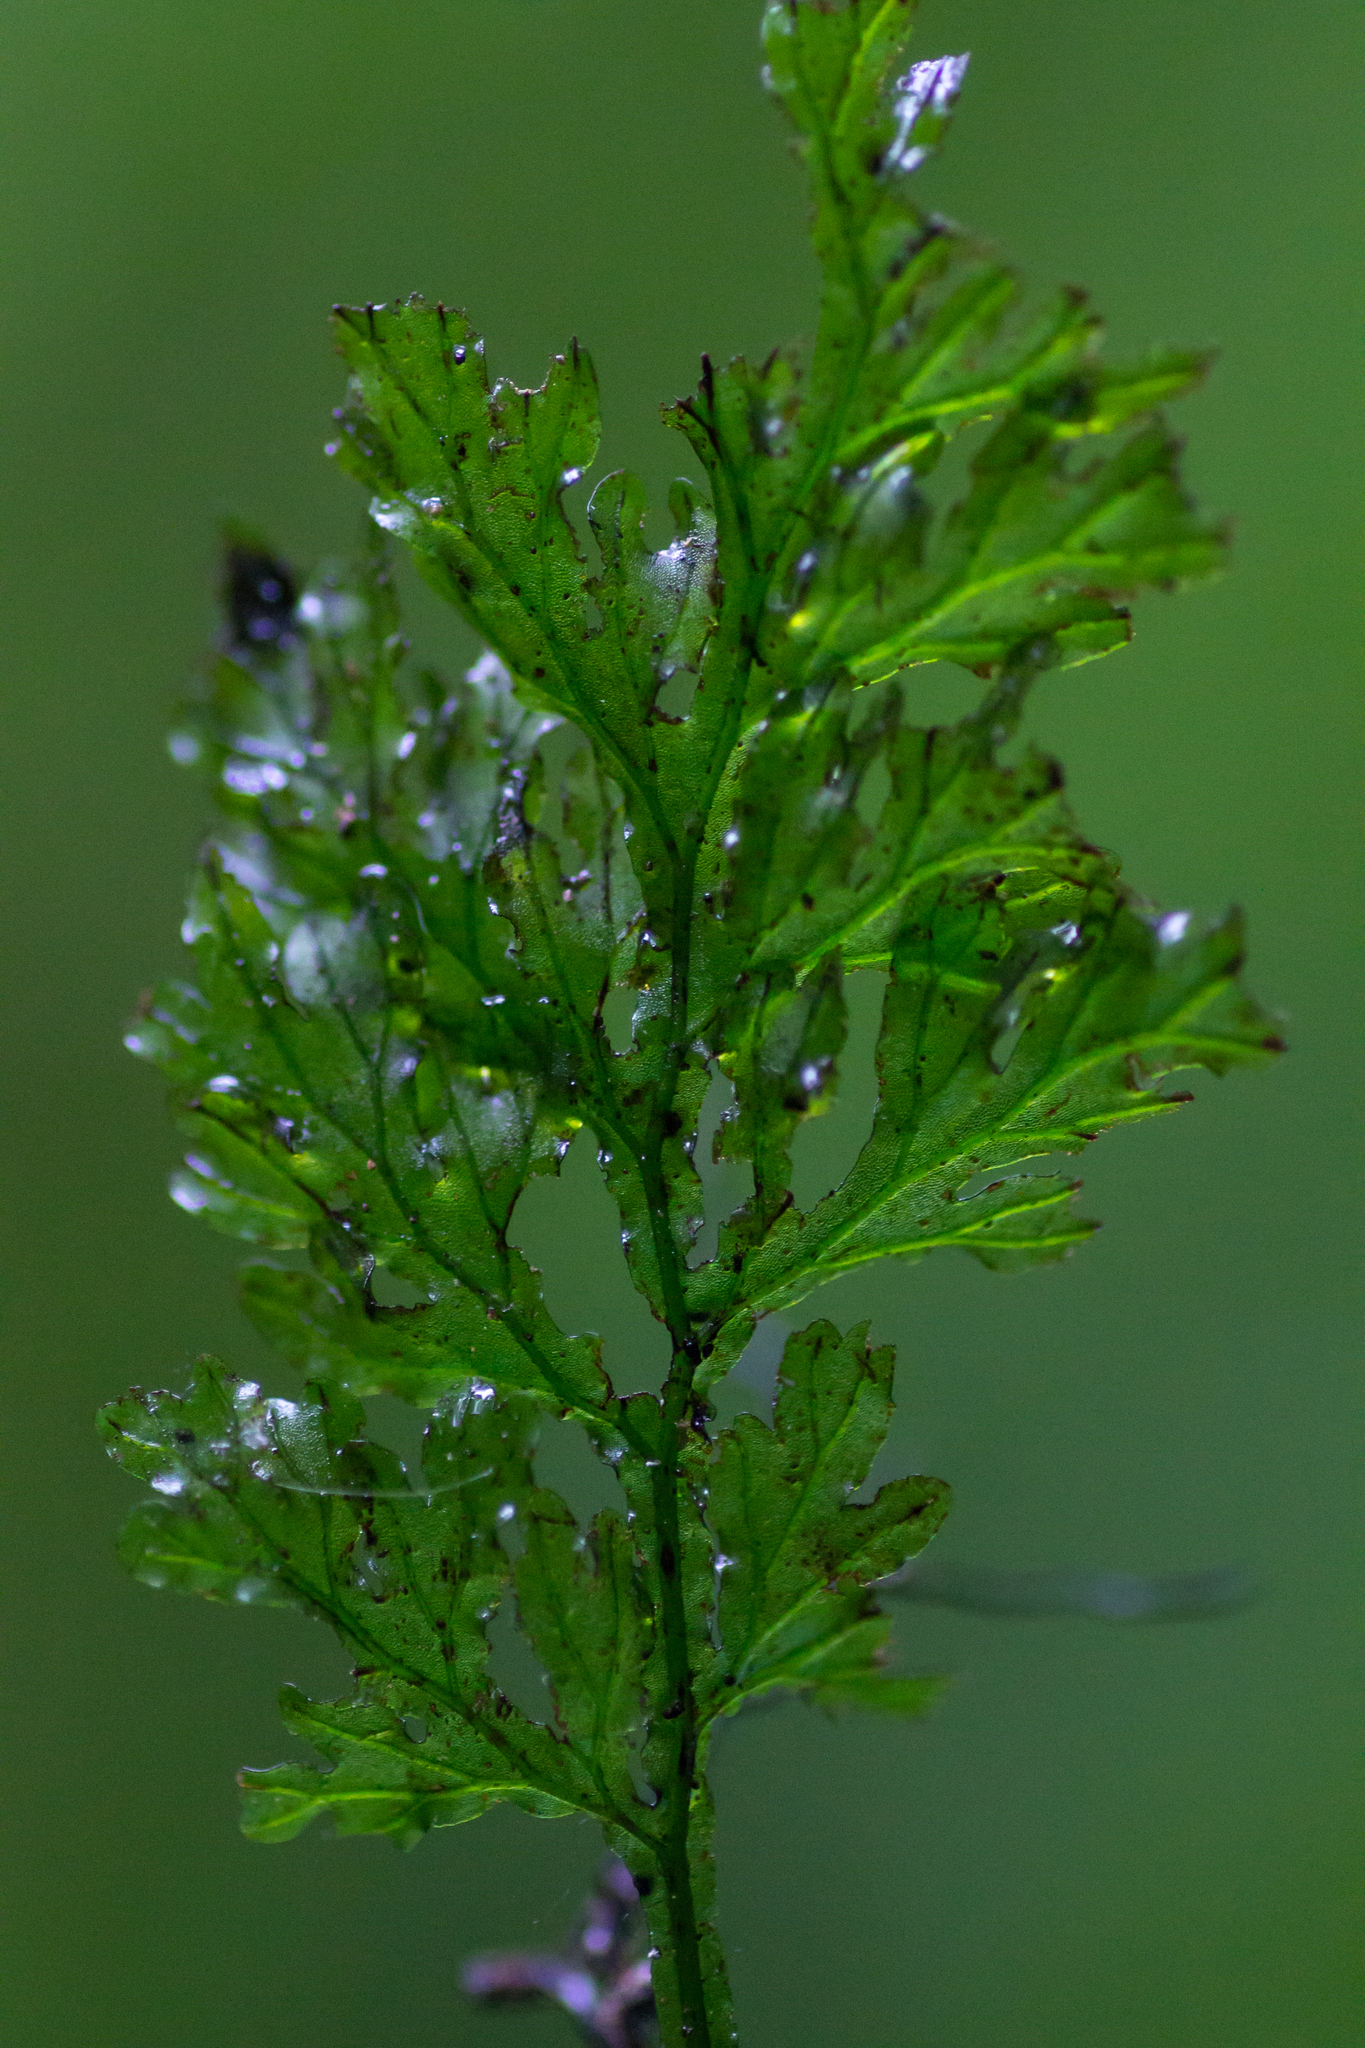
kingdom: Plantae
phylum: Tracheophyta
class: Polypodiopsida
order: Hymenophyllales
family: Hymenophyllaceae
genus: Vandenboschia
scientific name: Vandenboschia speciosa
